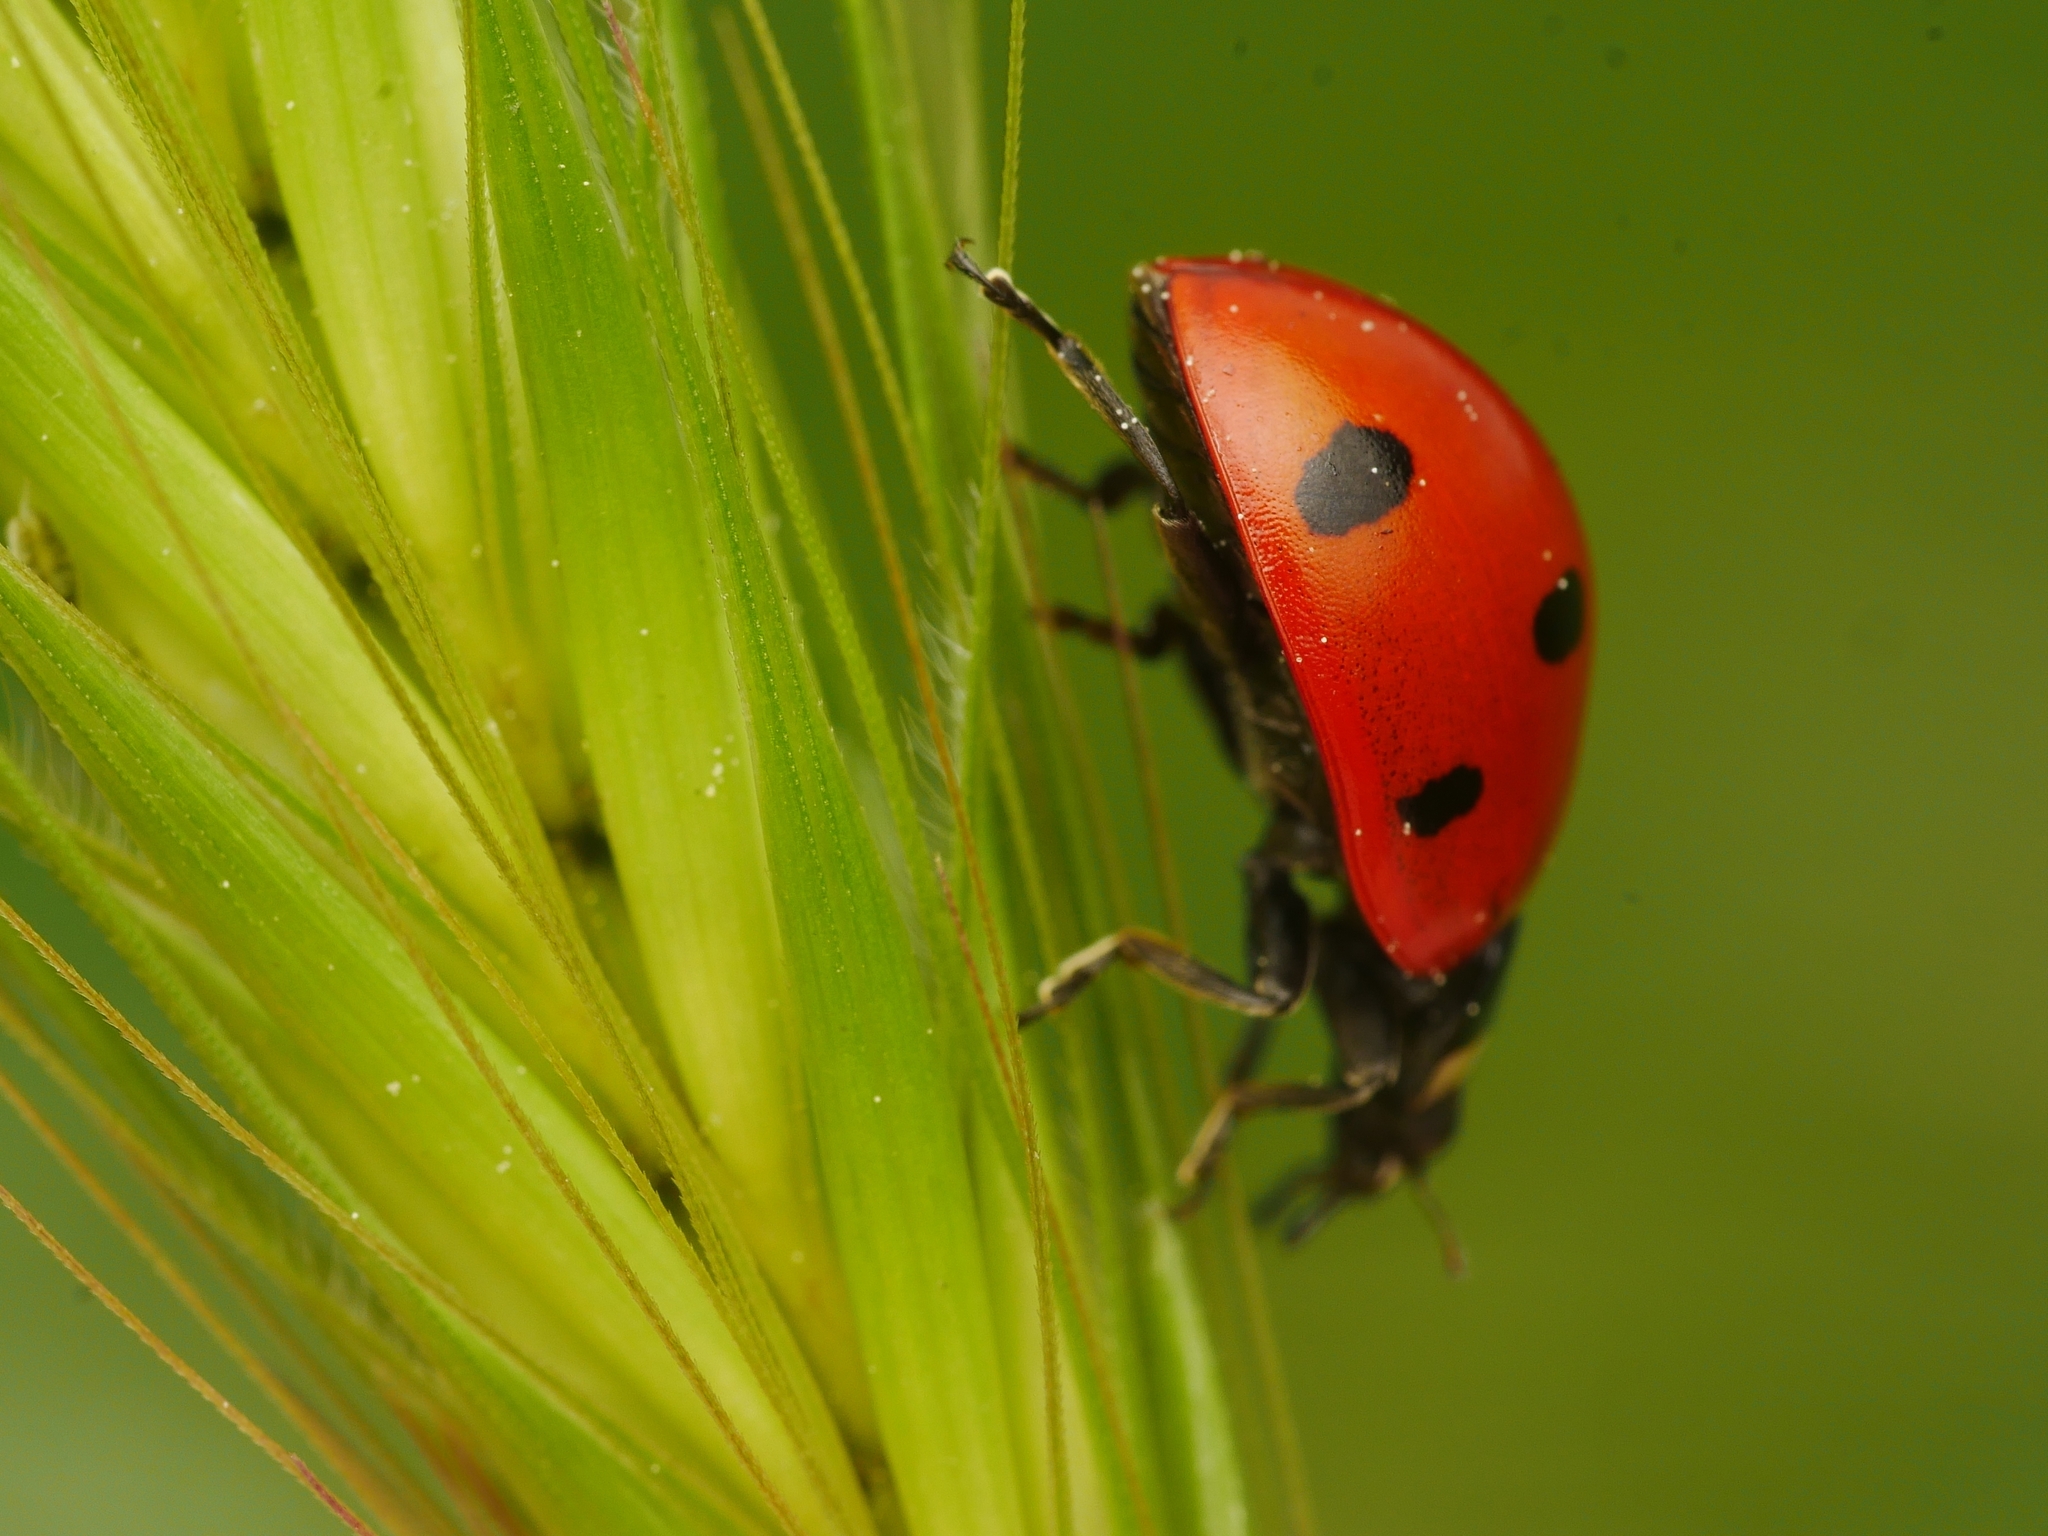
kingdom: Animalia
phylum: Arthropoda
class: Insecta
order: Coleoptera
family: Coccinellidae
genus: Coccinella
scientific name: Coccinella septempunctata
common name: Sevenspotted lady beetle
